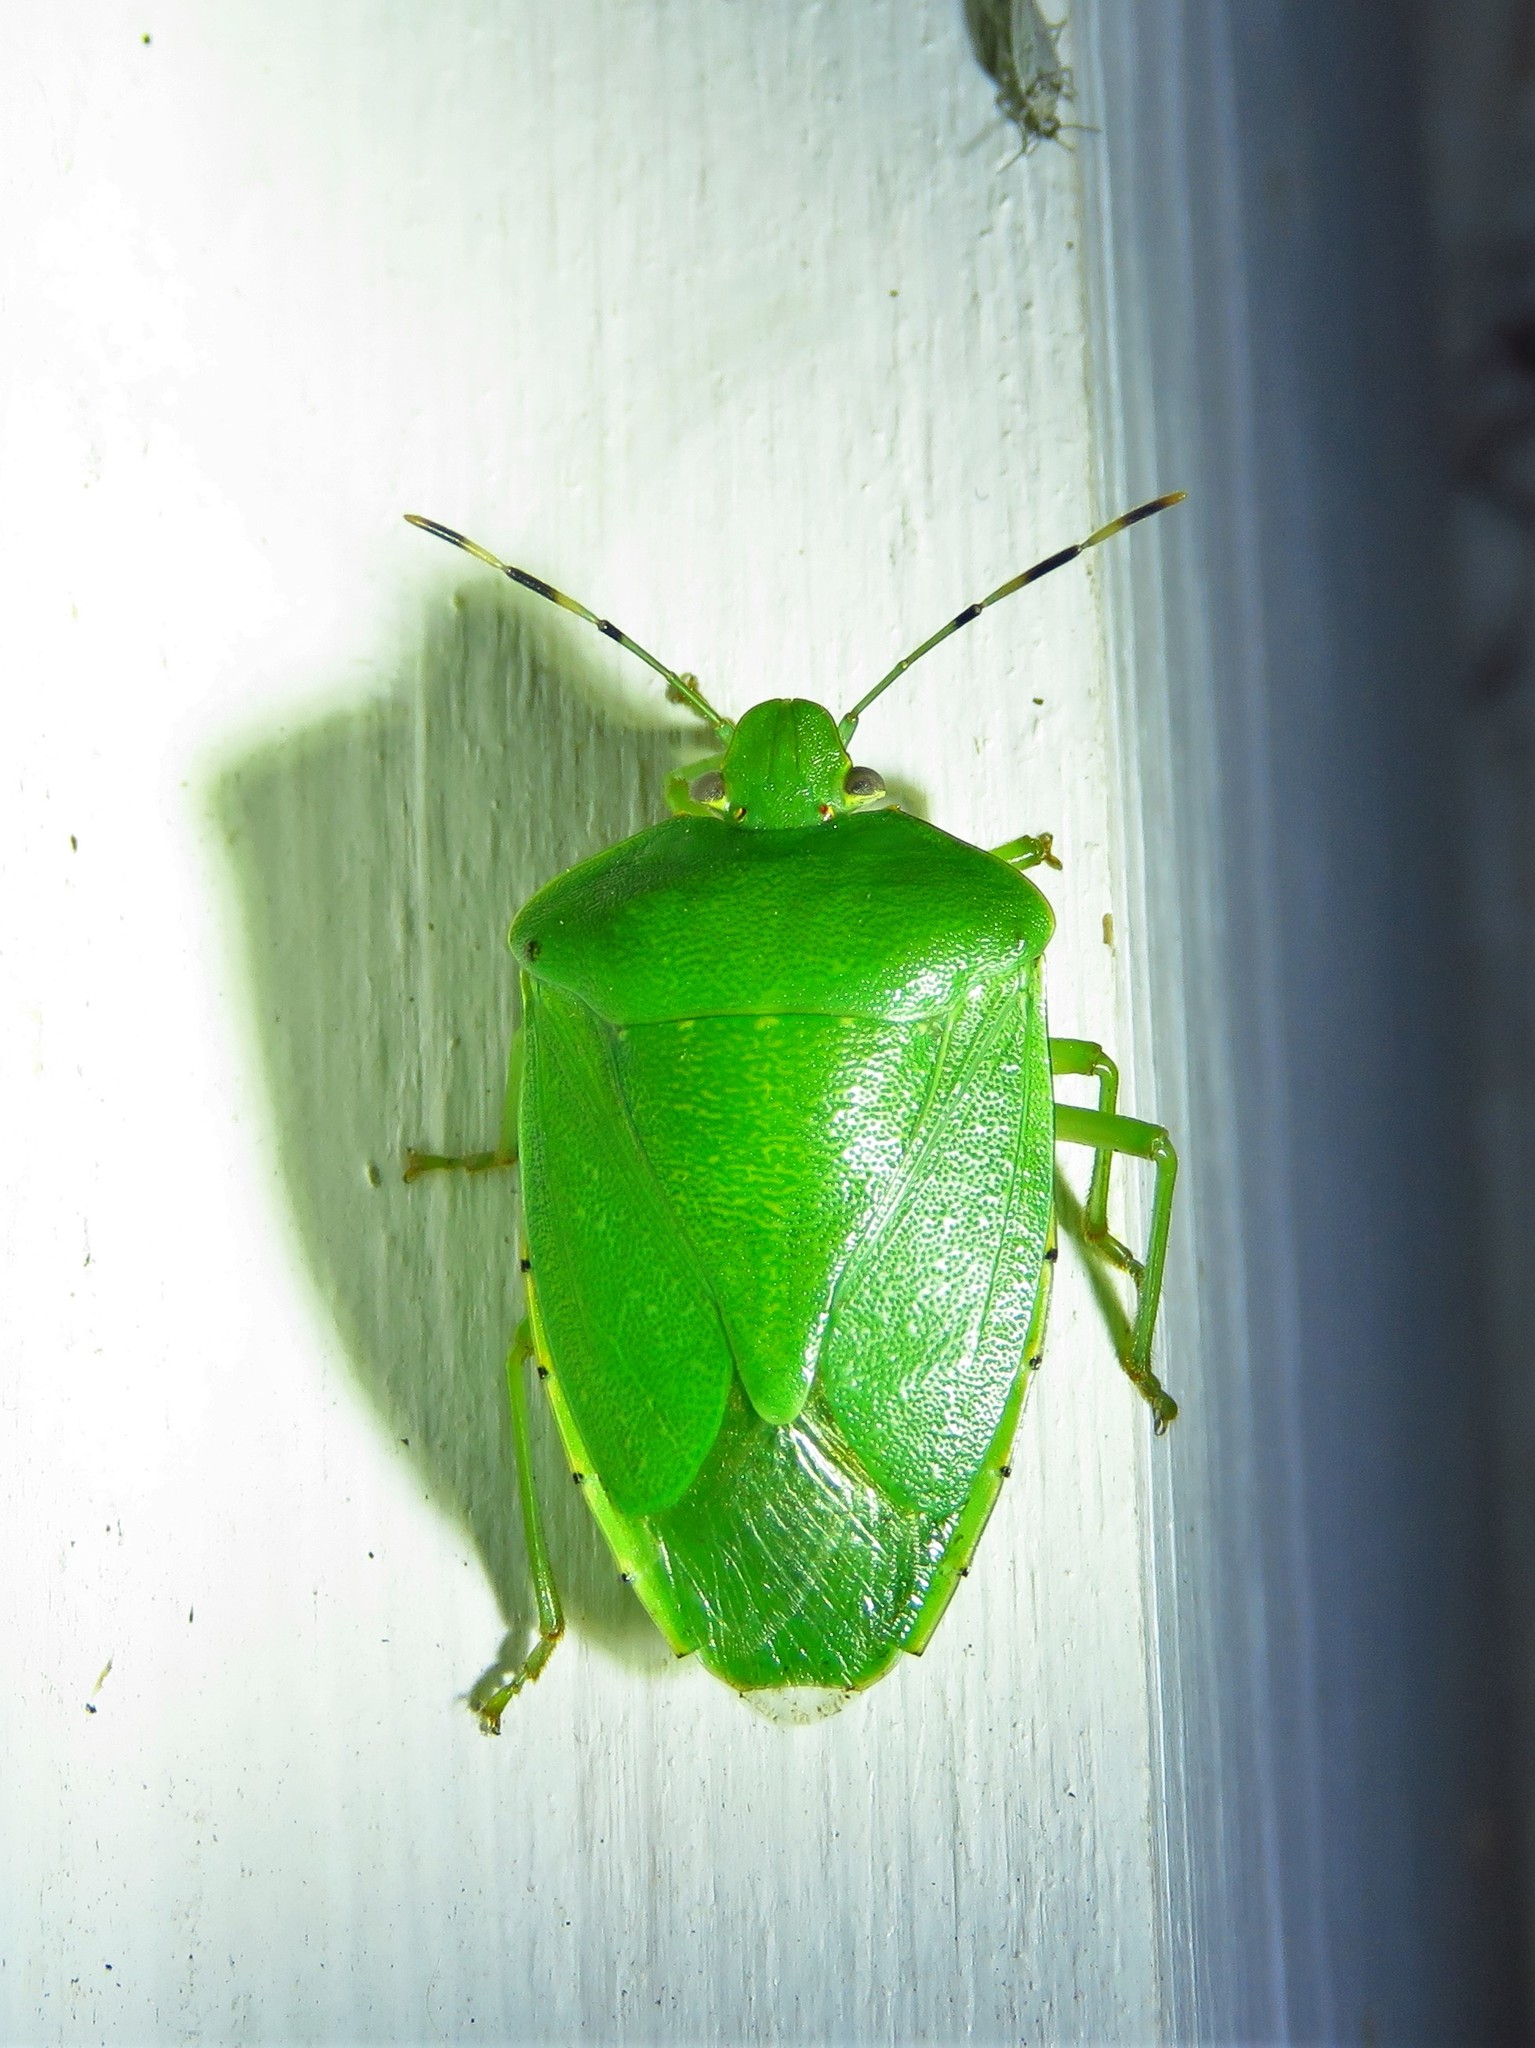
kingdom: Animalia
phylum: Arthropoda
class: Insecta
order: Hemiptera
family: Pentatomidae
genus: Chinavia
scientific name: Chinavia hilaris
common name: Green stink bug
